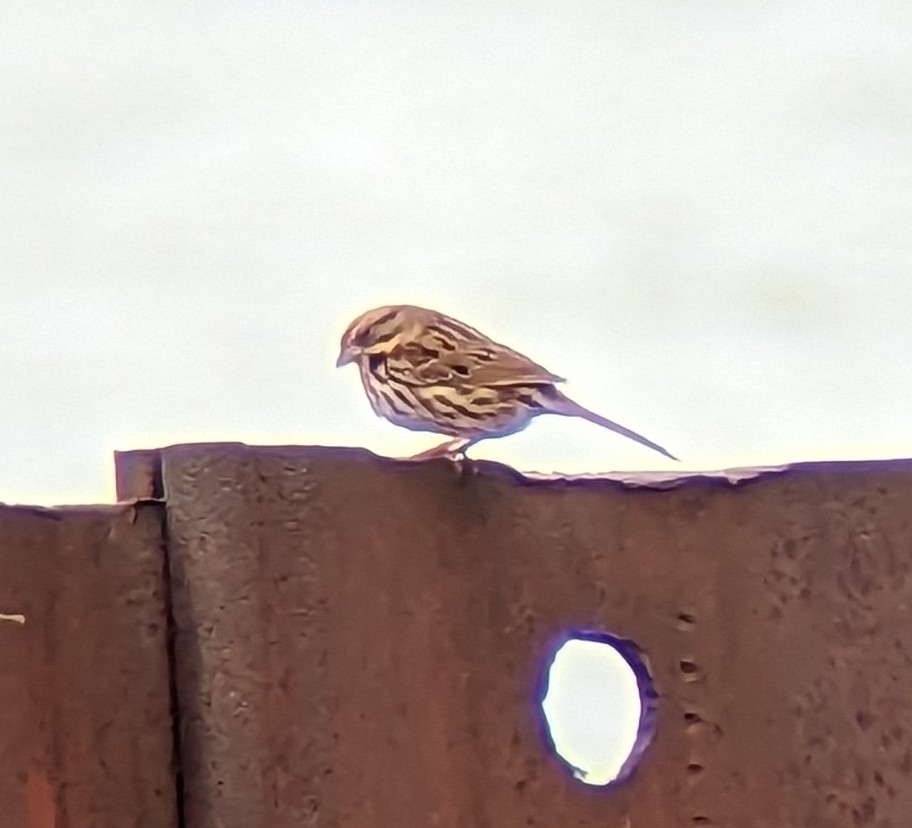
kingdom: Animalia
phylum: Chordata
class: Aves
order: Passeriformes
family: Passerellidae
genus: Melospiza
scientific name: Melospiza melodia
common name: Song sparrow
